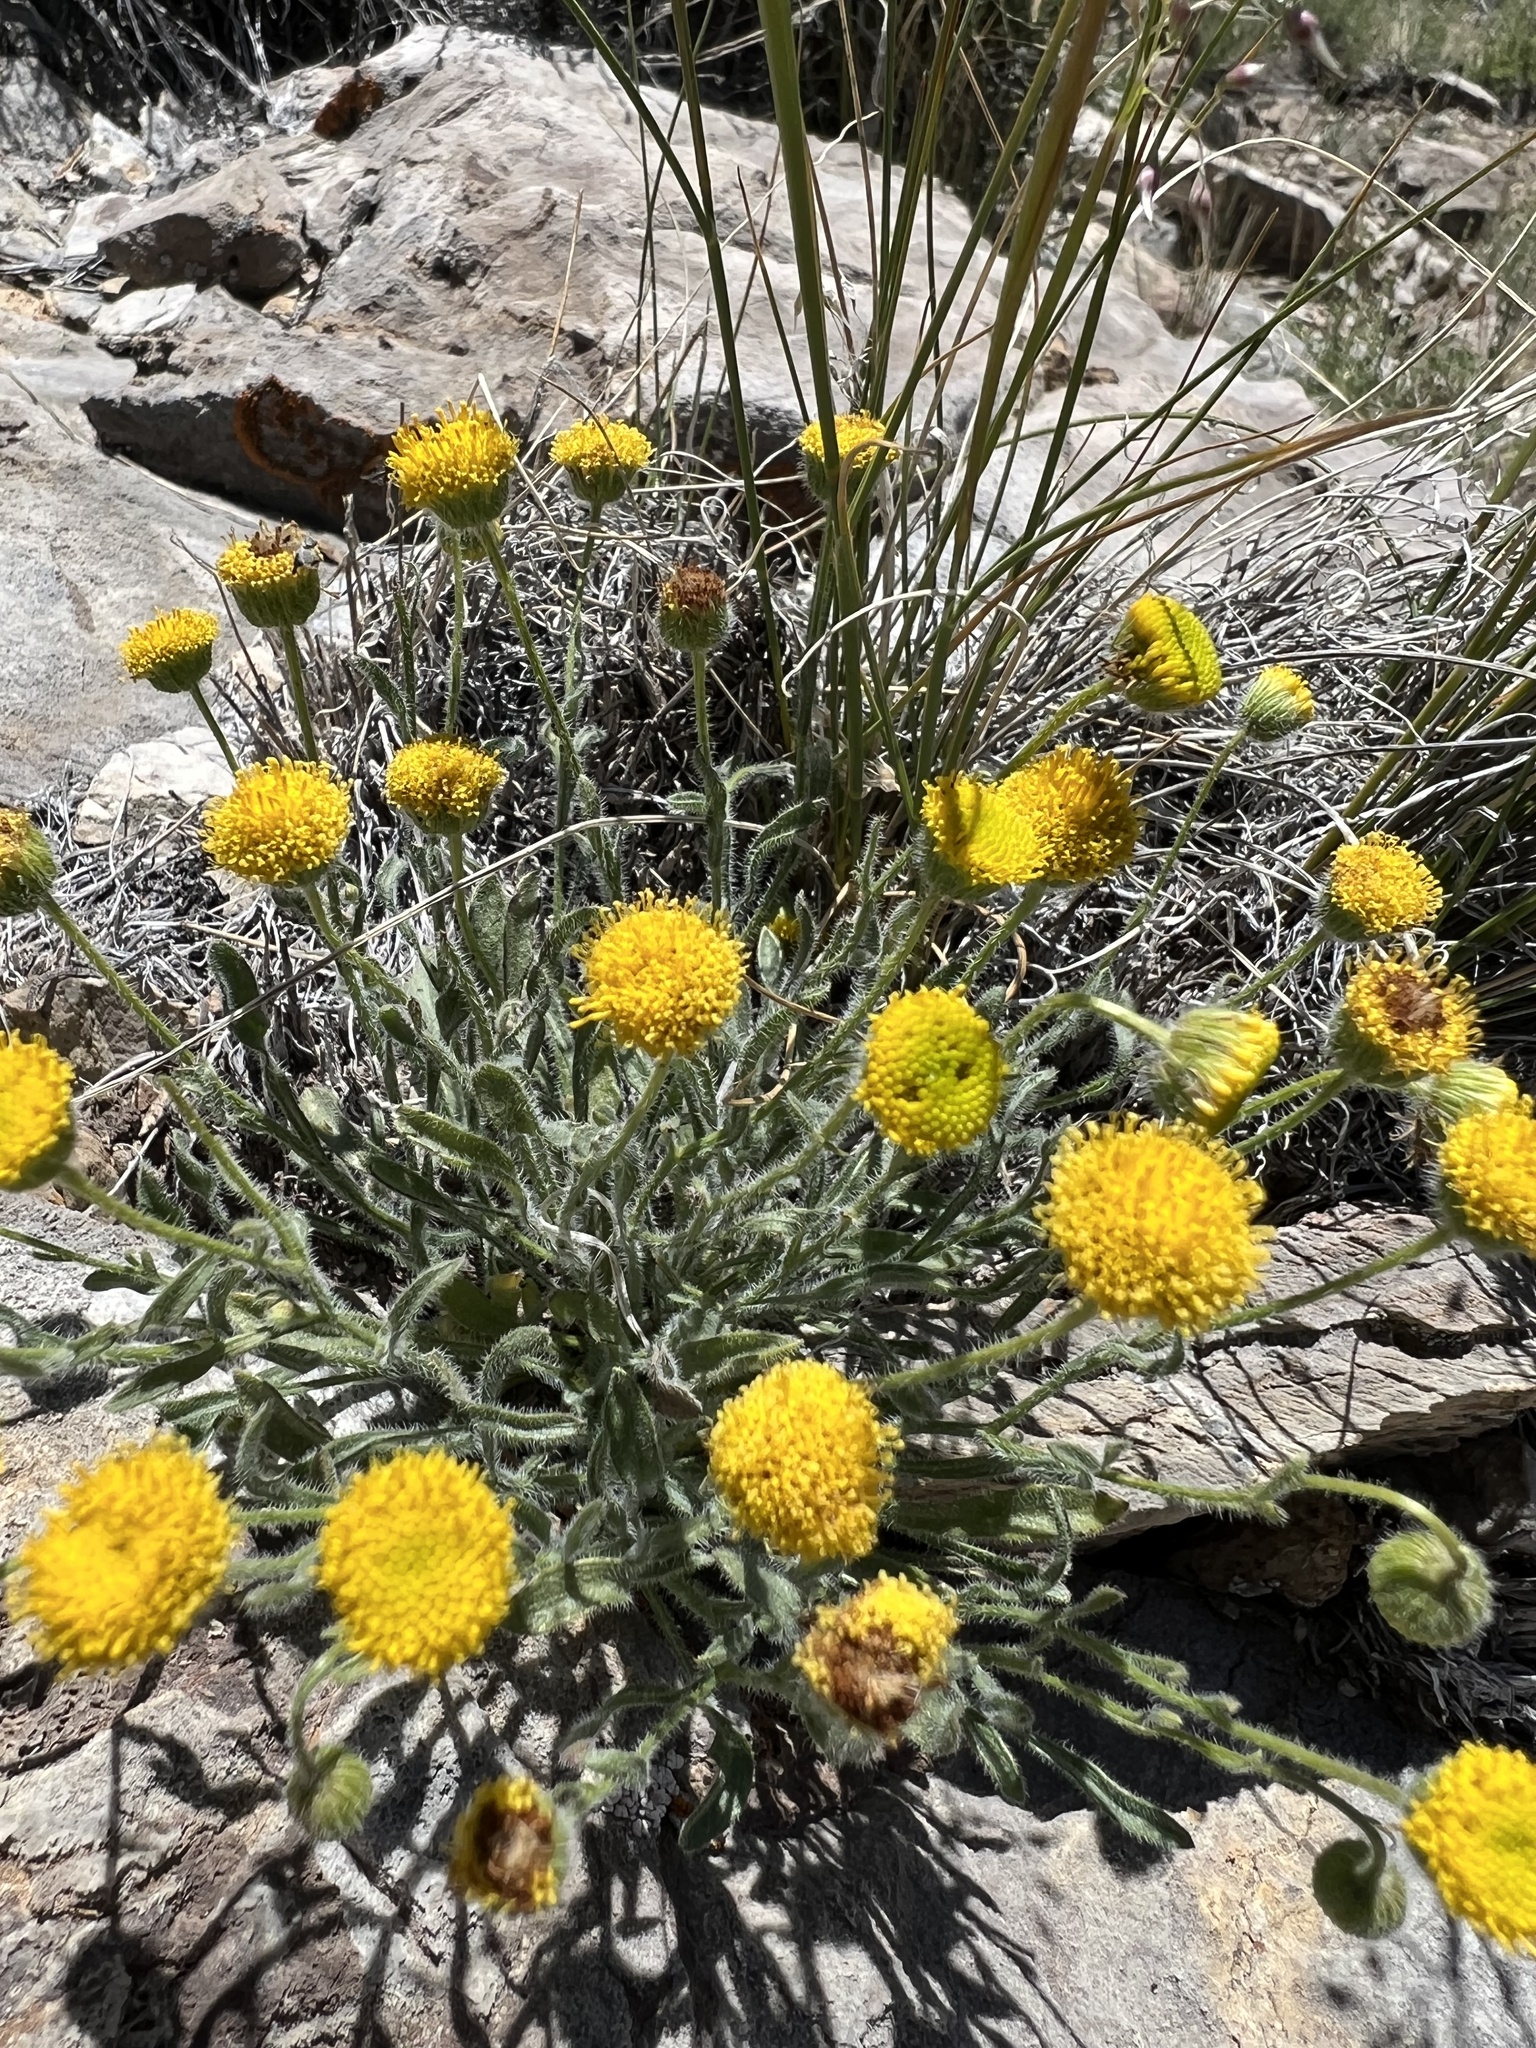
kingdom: Plantae
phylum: Tracheophyta
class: Magnoliopsida
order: Asterales
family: Asteraceae
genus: Erigeron
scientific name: Erigeron aphanactis
